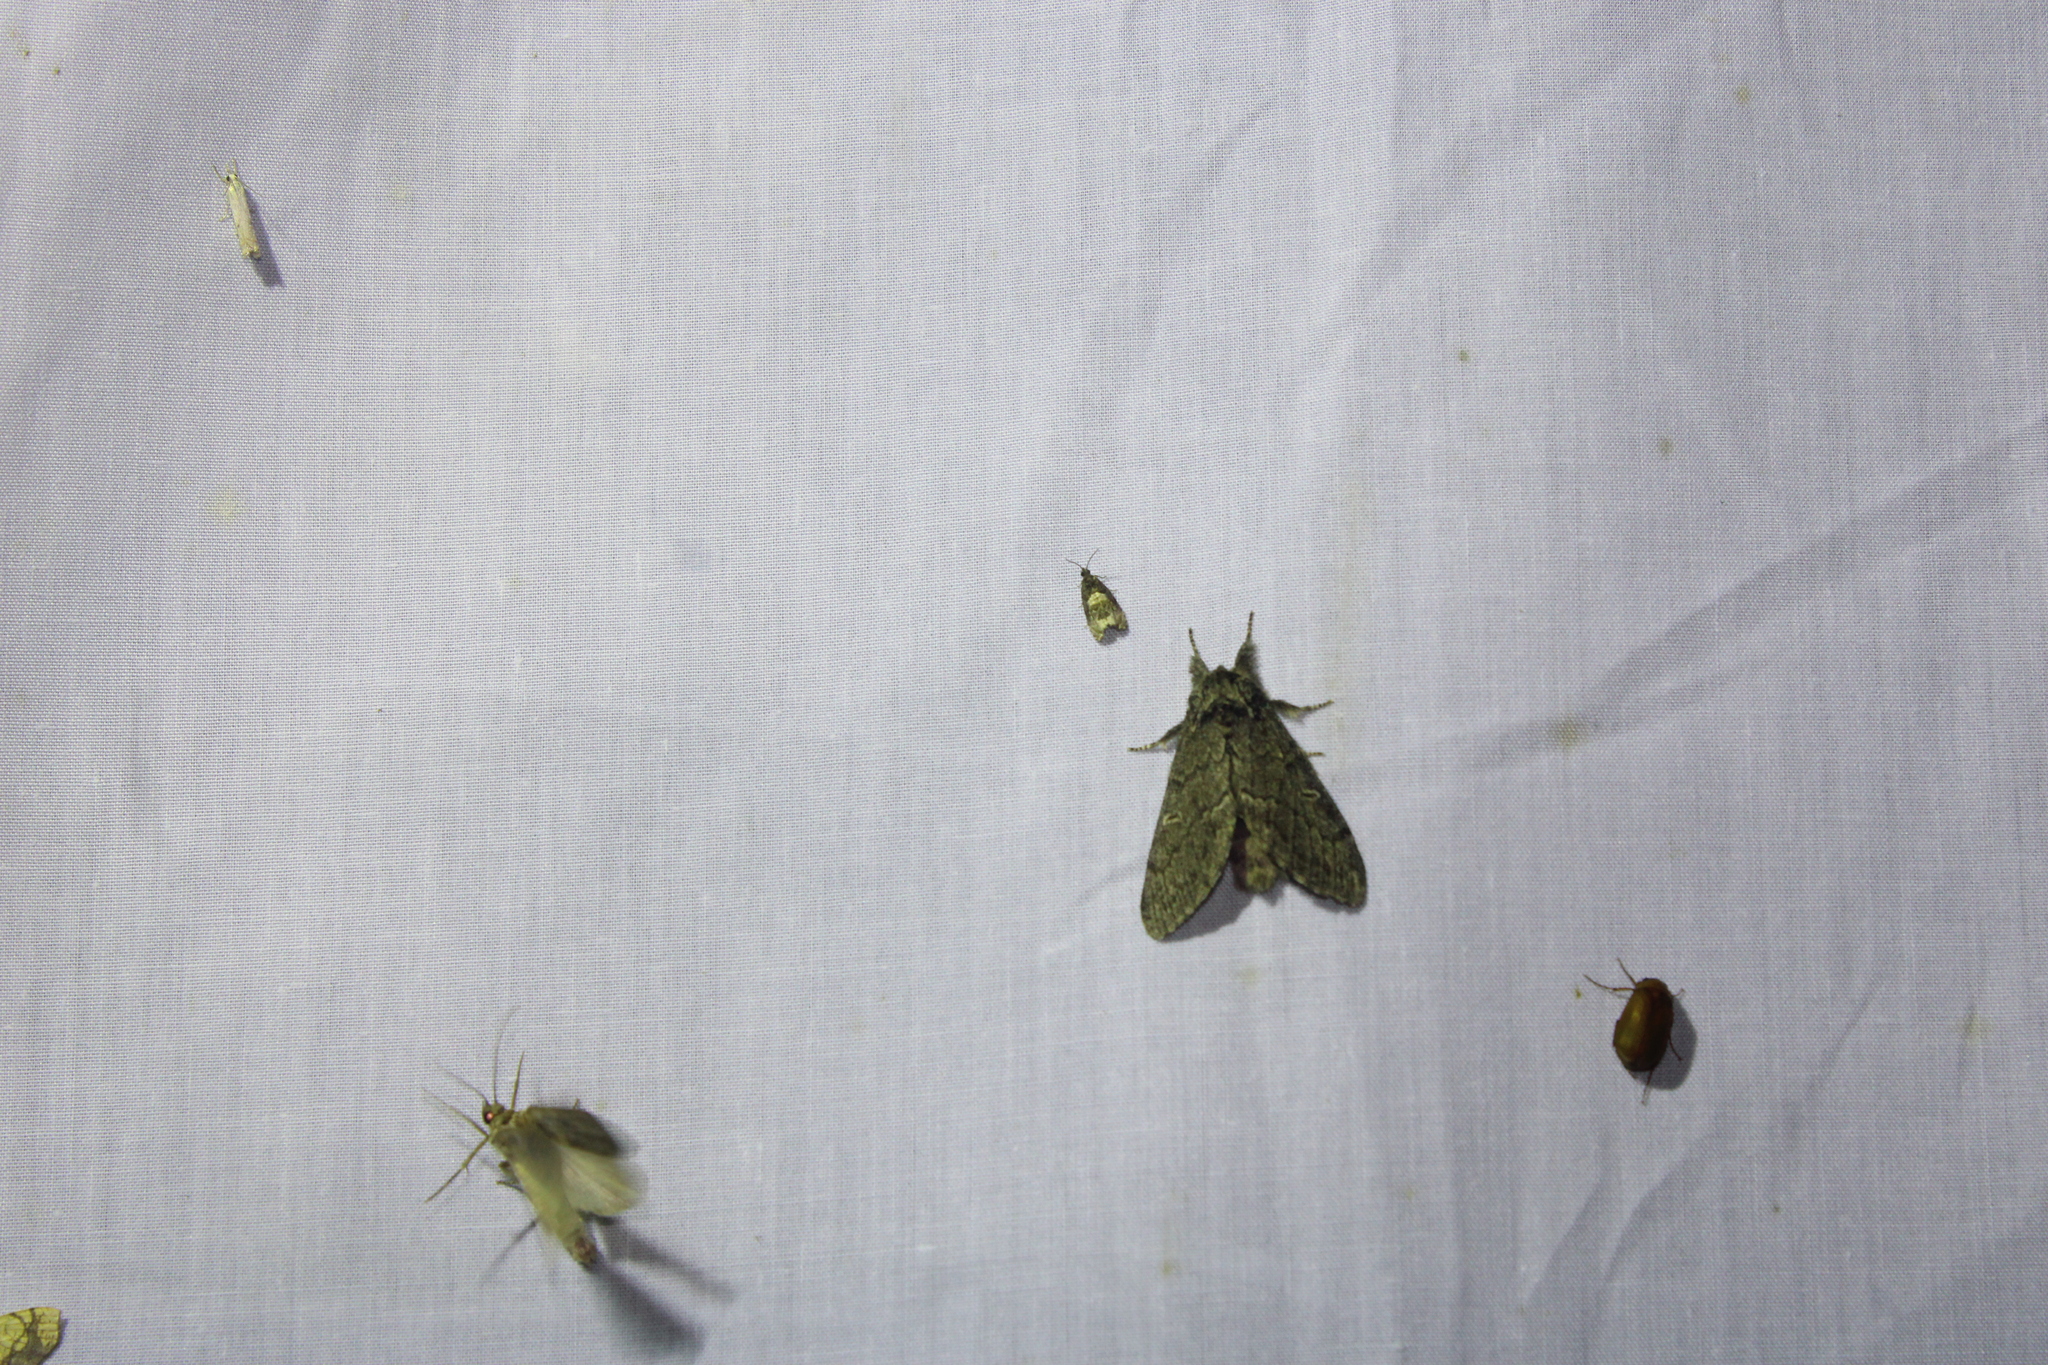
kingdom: Animalia
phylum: Arthropoda
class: Insecta
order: Lepidoptera
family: Notodontidae
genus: Notodonta
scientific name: Notodonta torva
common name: Large dark prominent
